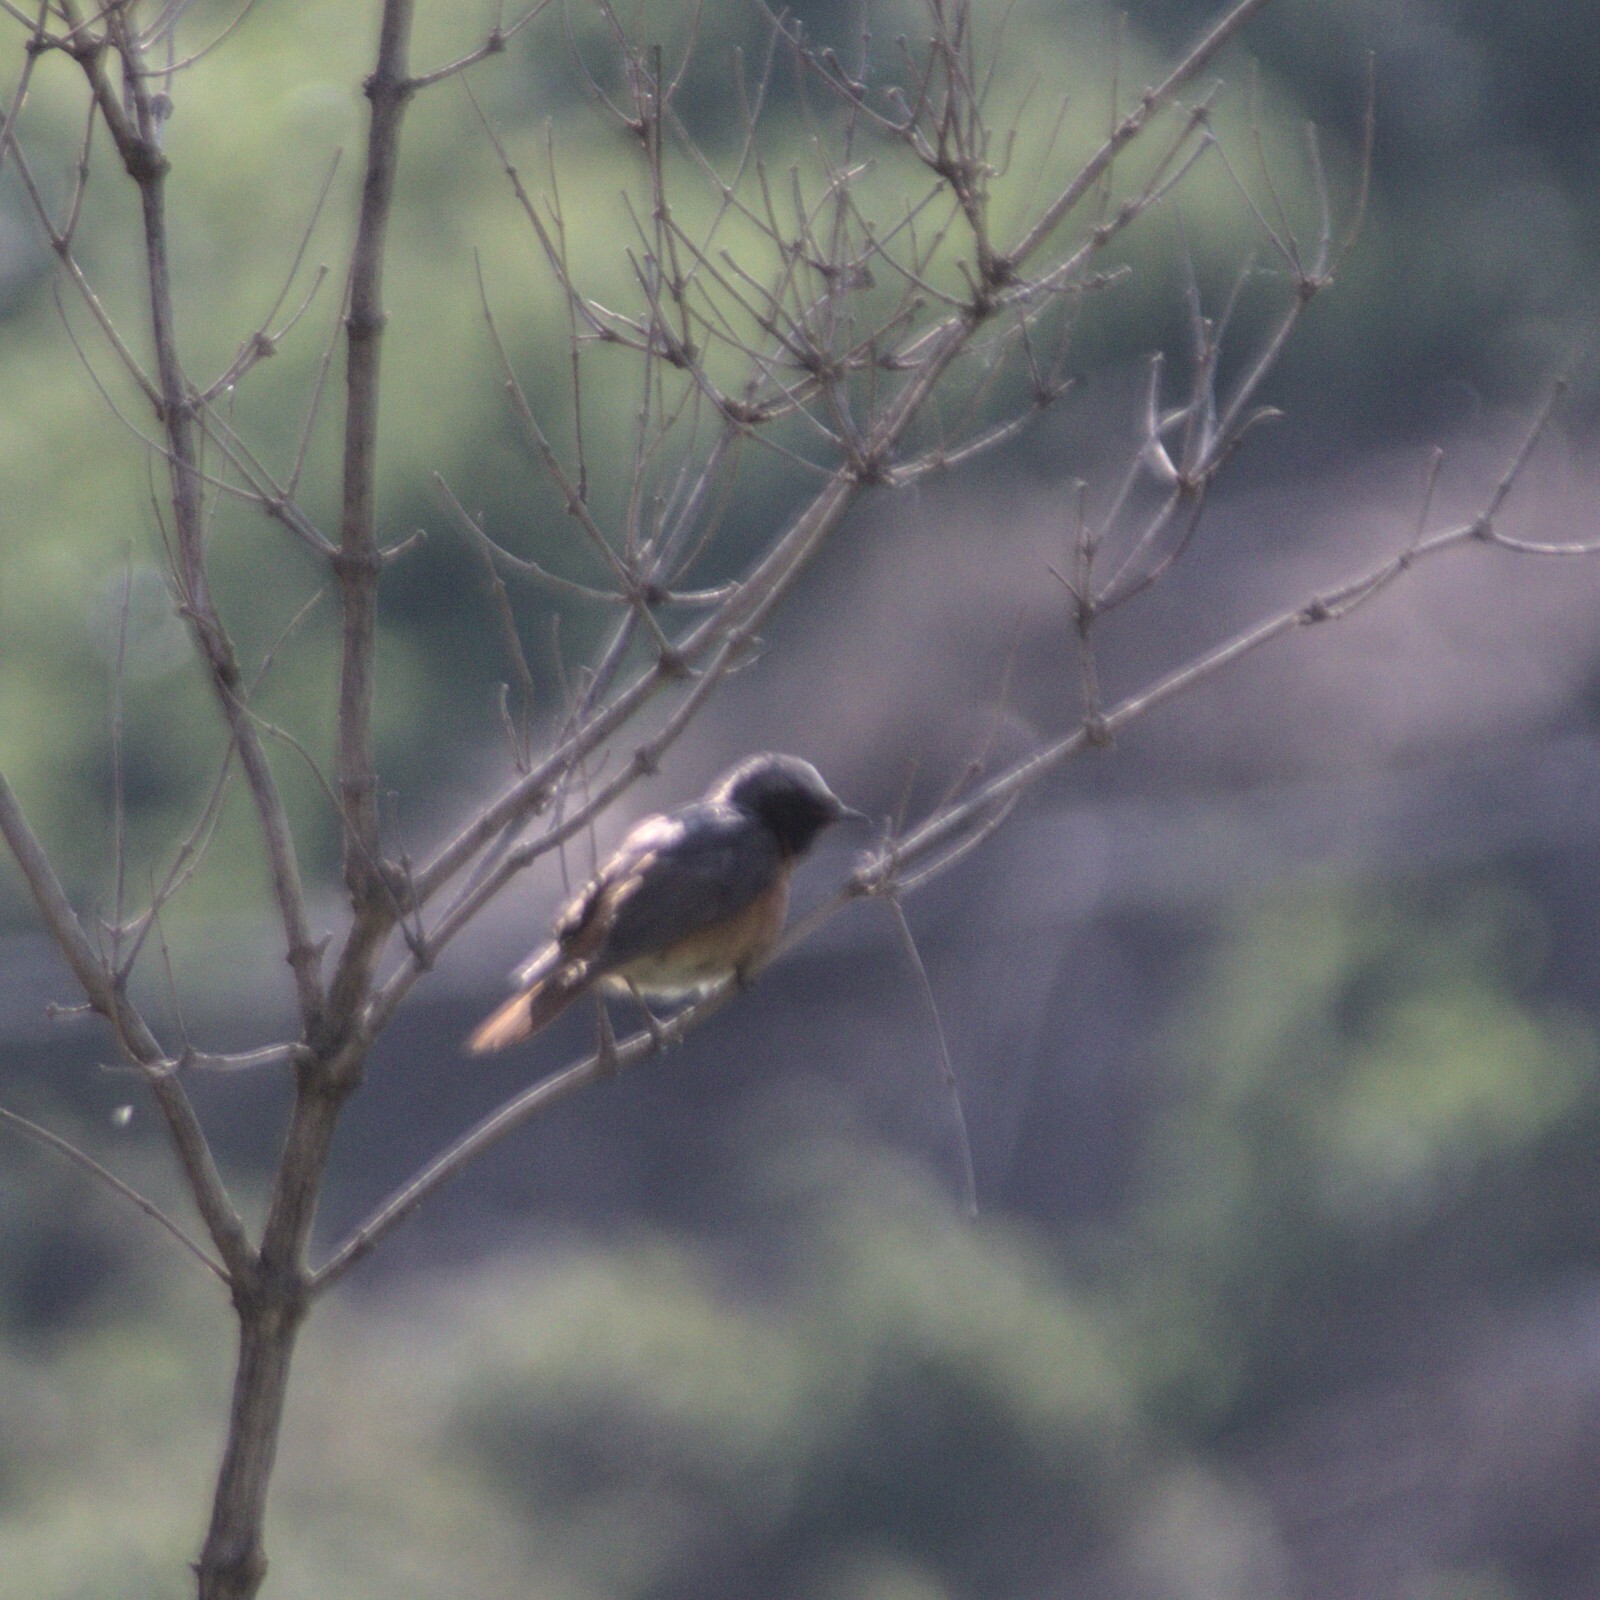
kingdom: Animalia
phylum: Chordata
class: Aves
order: Passeriformes
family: Muscicapidae
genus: Phoenicurus
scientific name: Phoenicurus phoenicurus
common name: Common redstart
